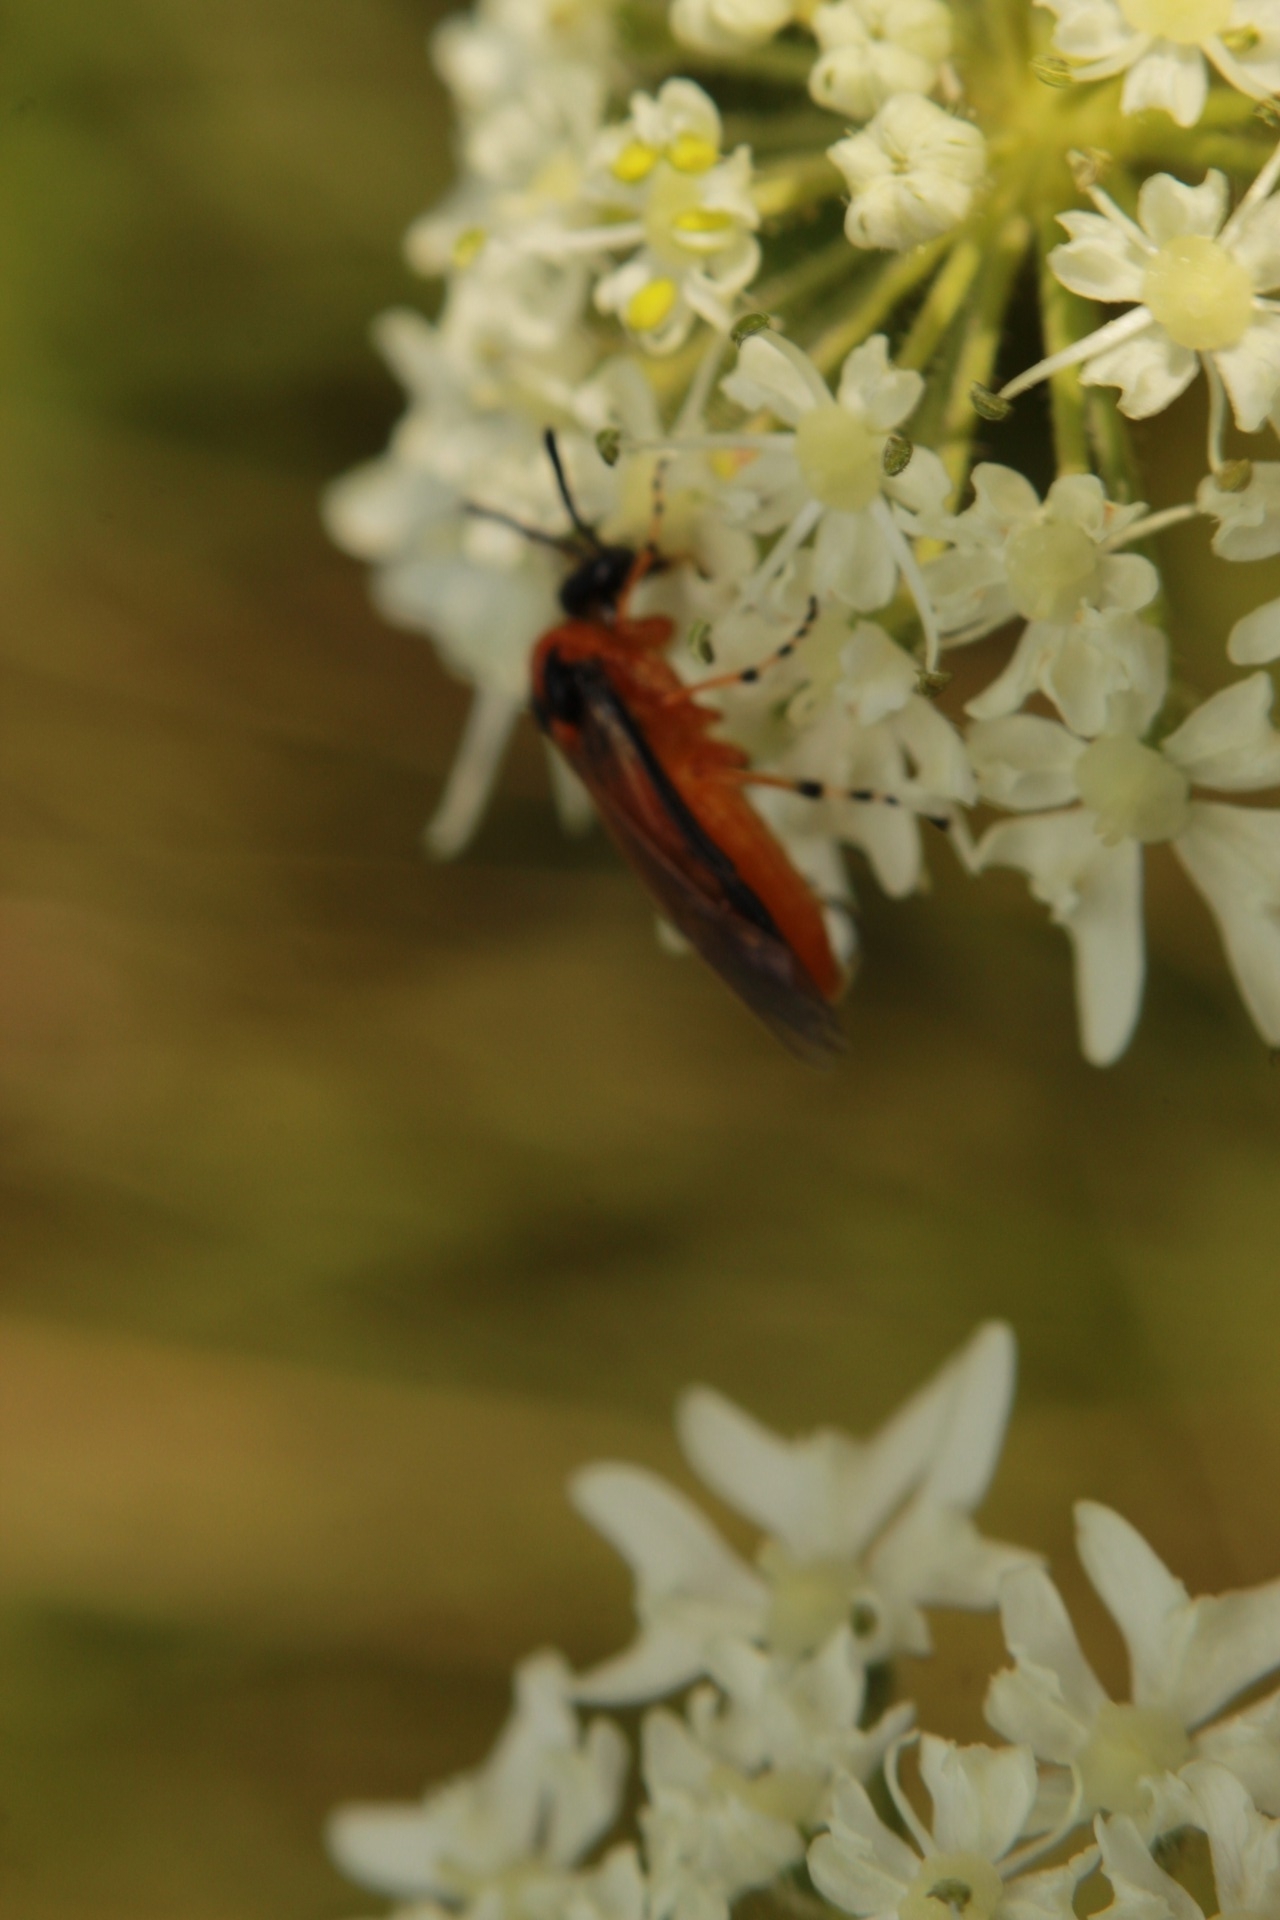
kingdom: Animalia
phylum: Arthropoda
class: Insecta
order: Hymenoptera
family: Tenthredinidae
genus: Athalia
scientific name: Athalia rosae
